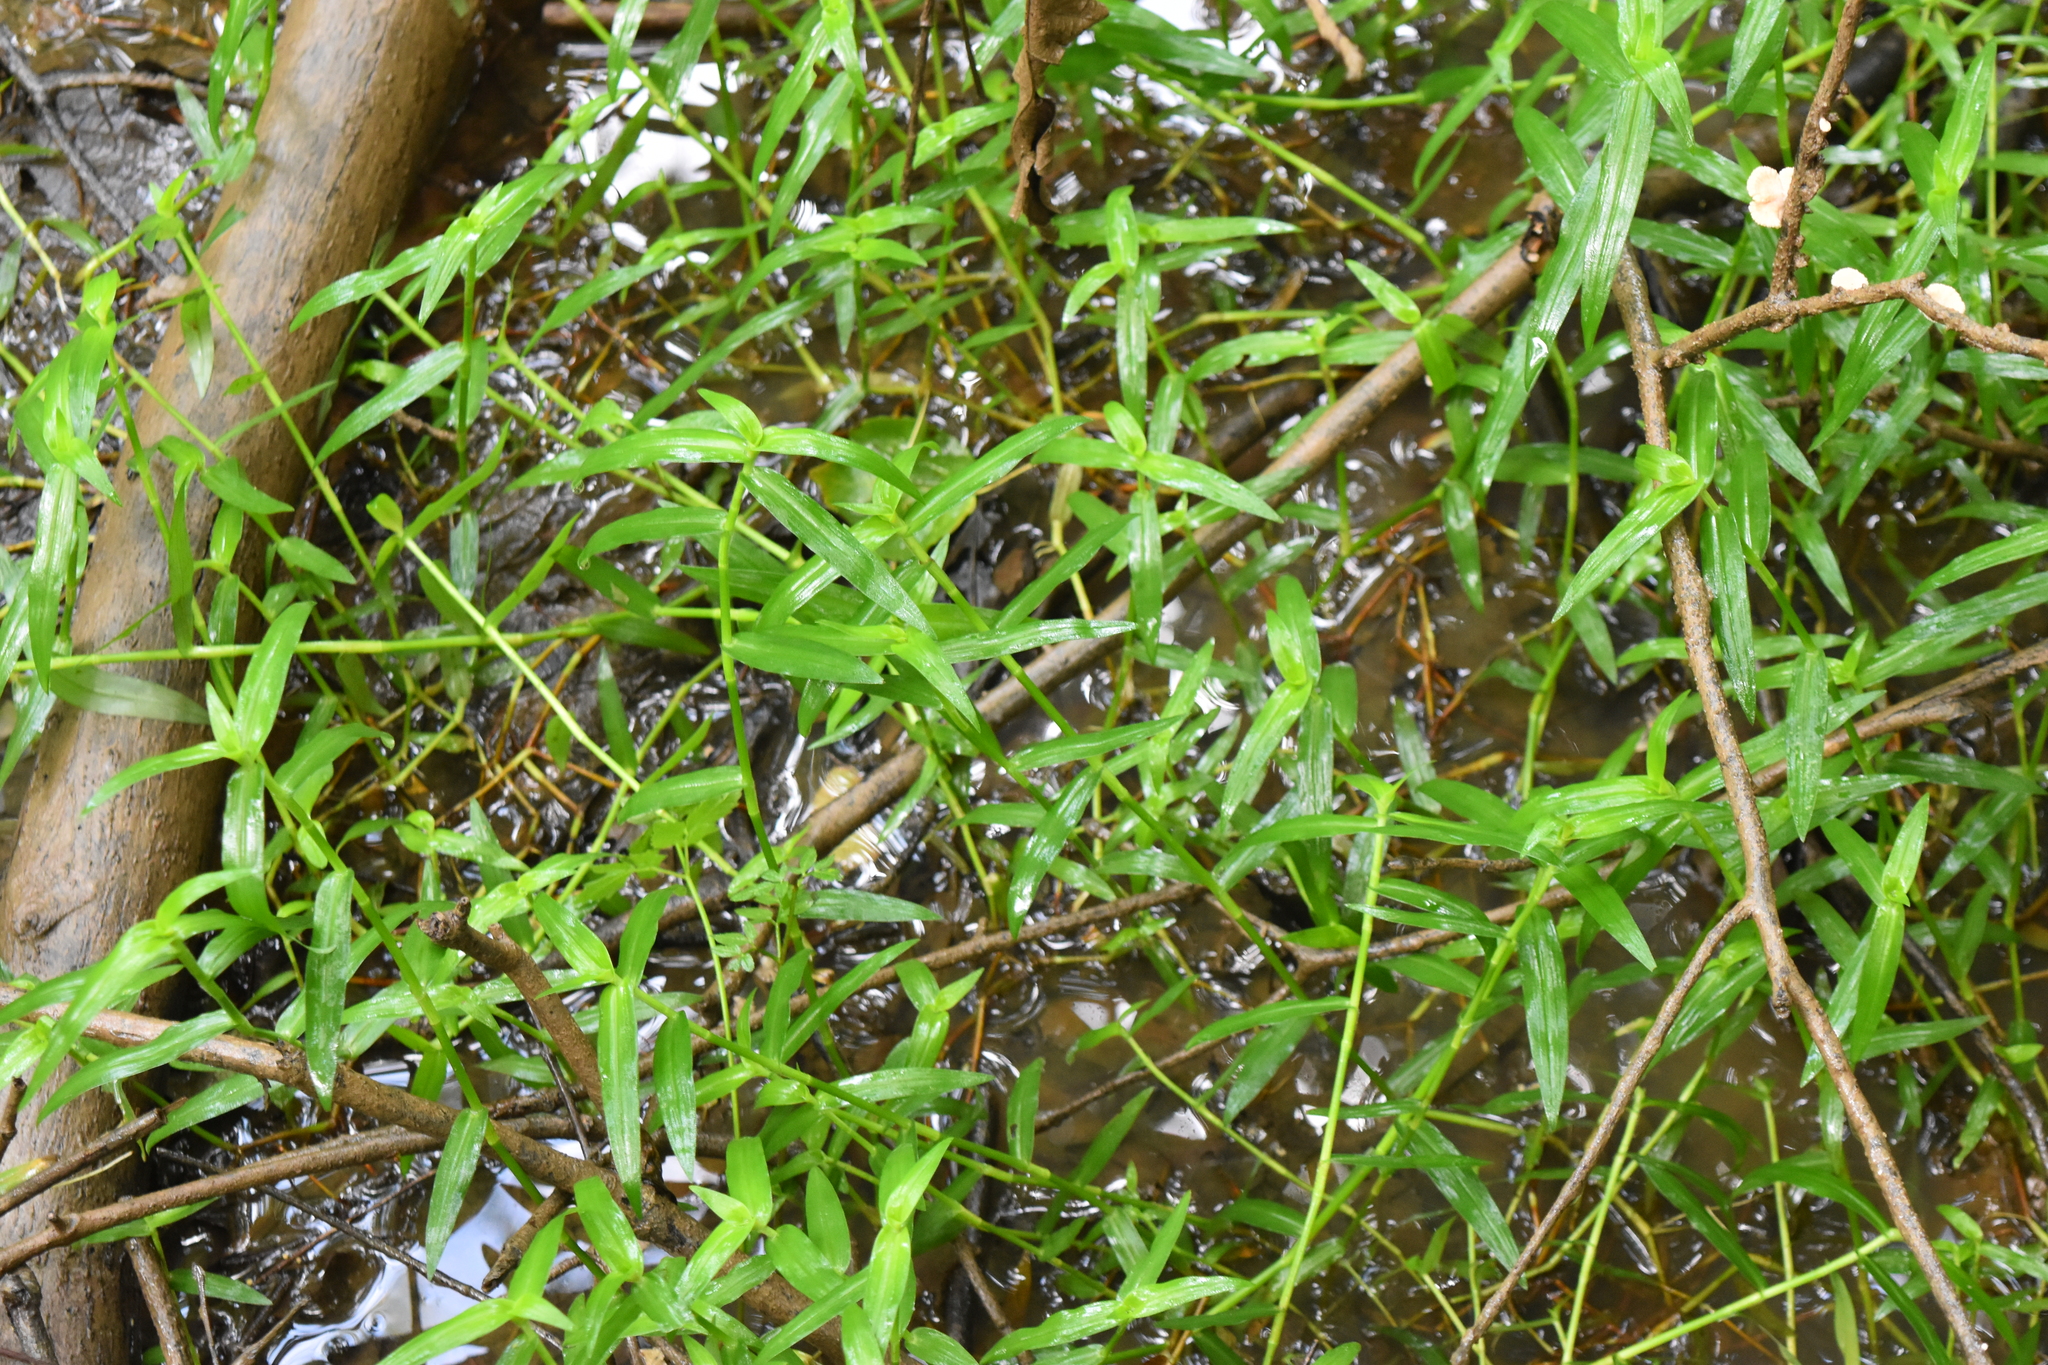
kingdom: Plantae
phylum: Tracheophyta
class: Liliopsida
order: Commelinales
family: Commelinaceae
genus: Murdannia
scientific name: Murdannia keisak
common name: Wartremoving herb
